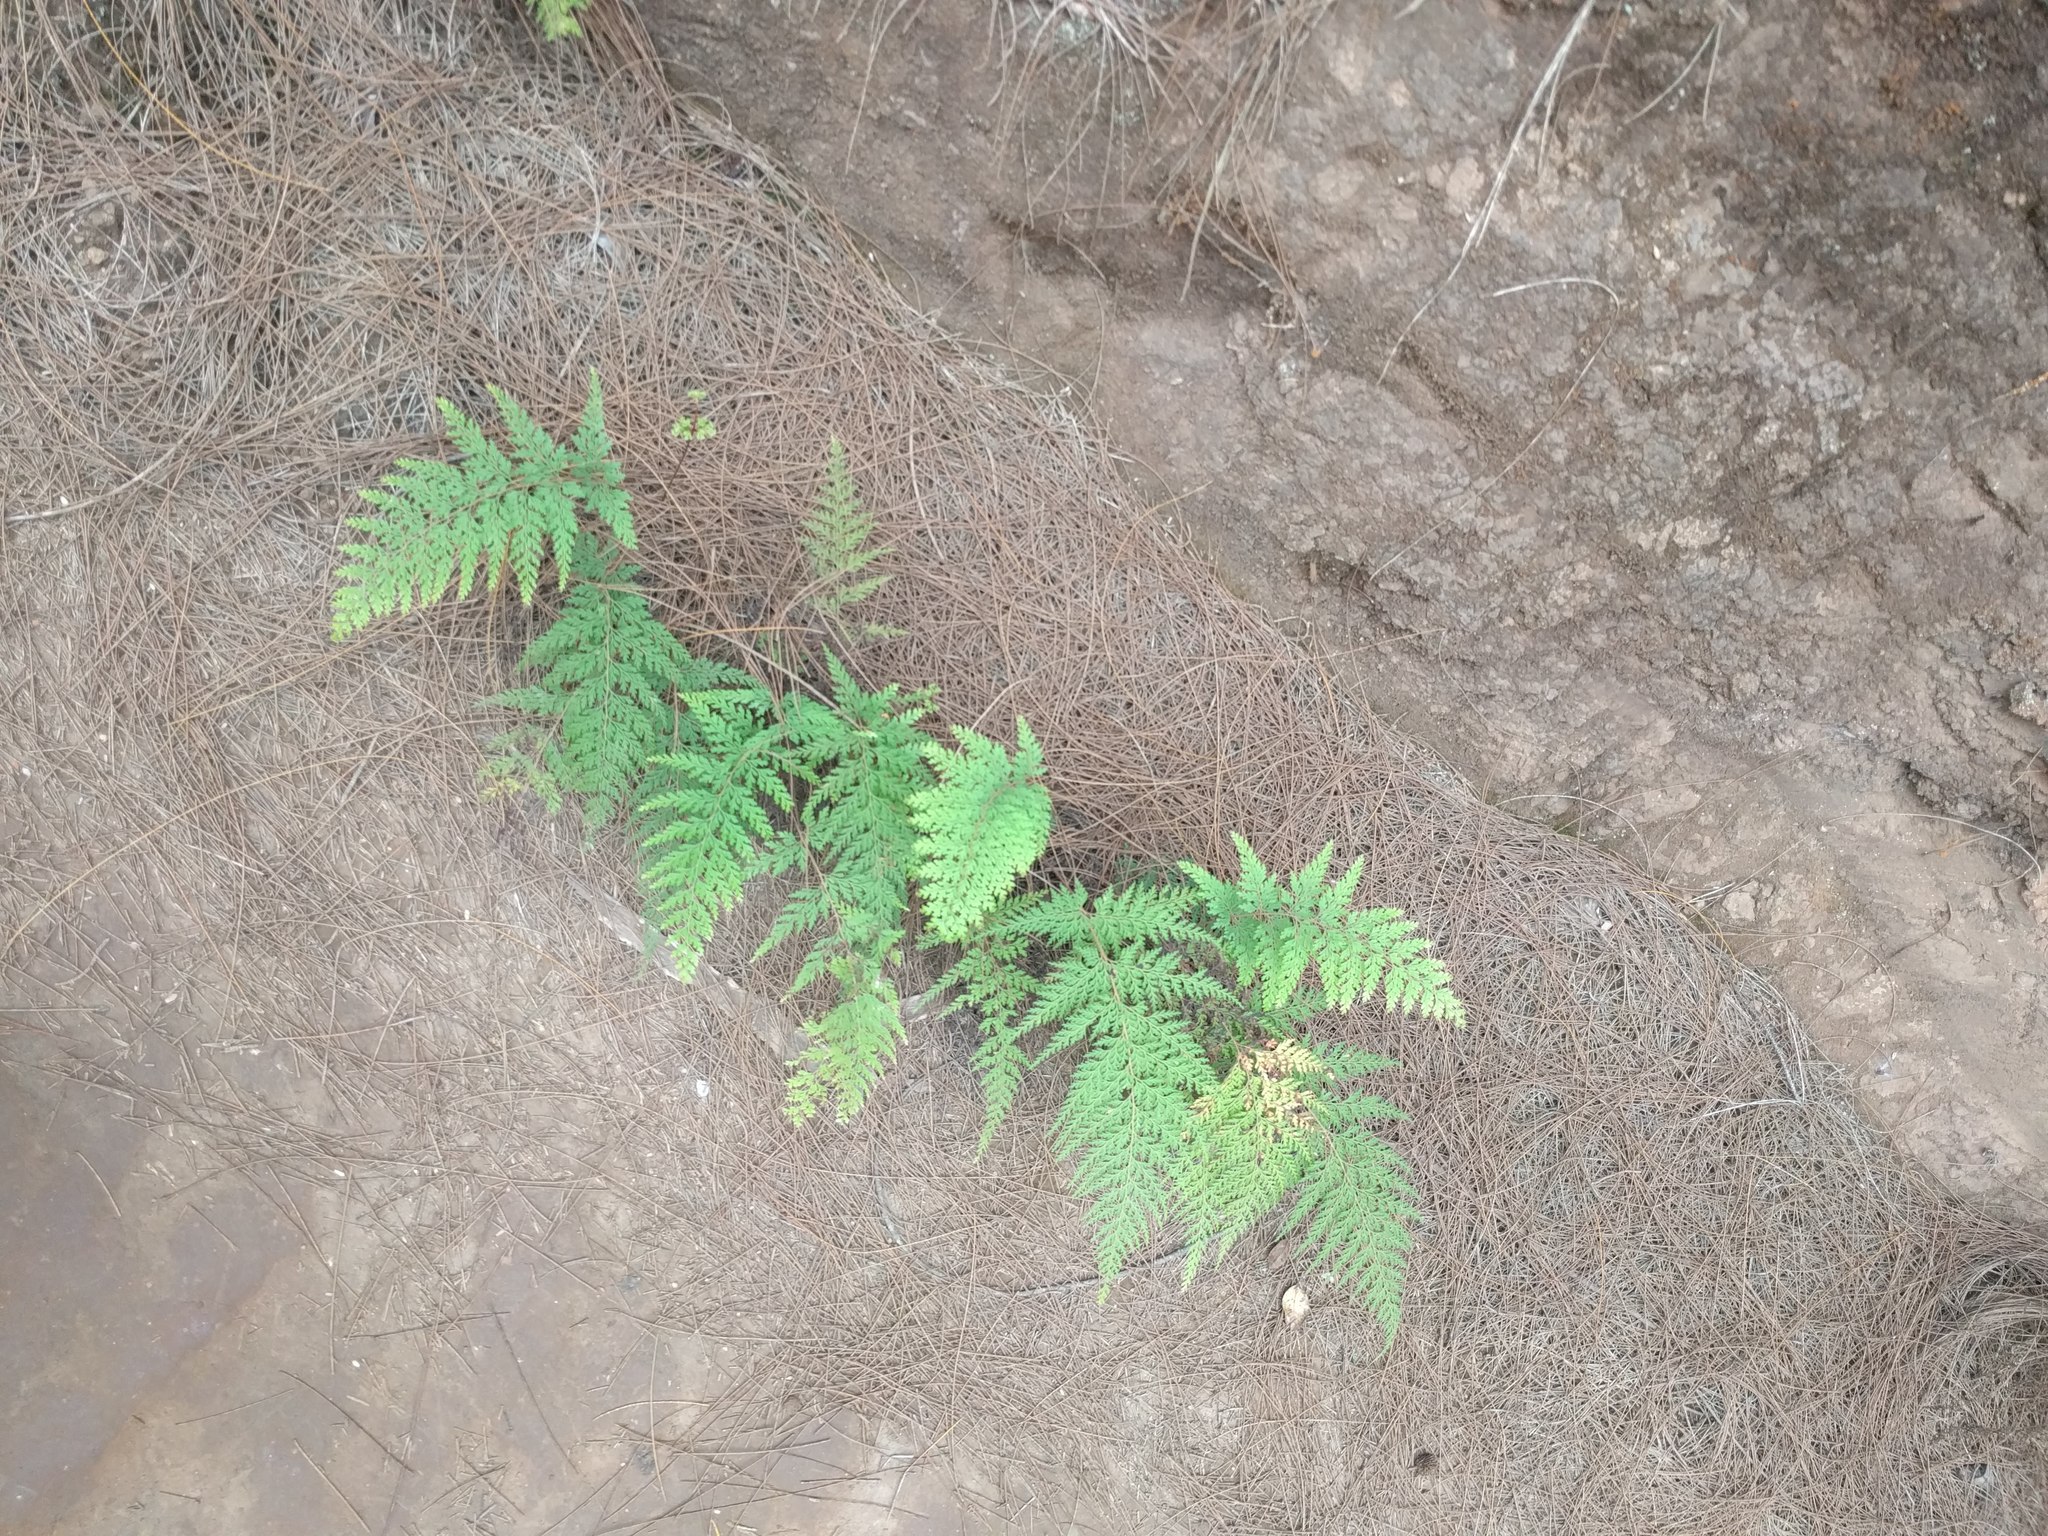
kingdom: Plantae
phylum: Tracheophyta
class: Polypodiopsida
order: Polypodiales
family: Lindsaeaceae
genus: Odontosoria
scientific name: Odontosoria chinensis
